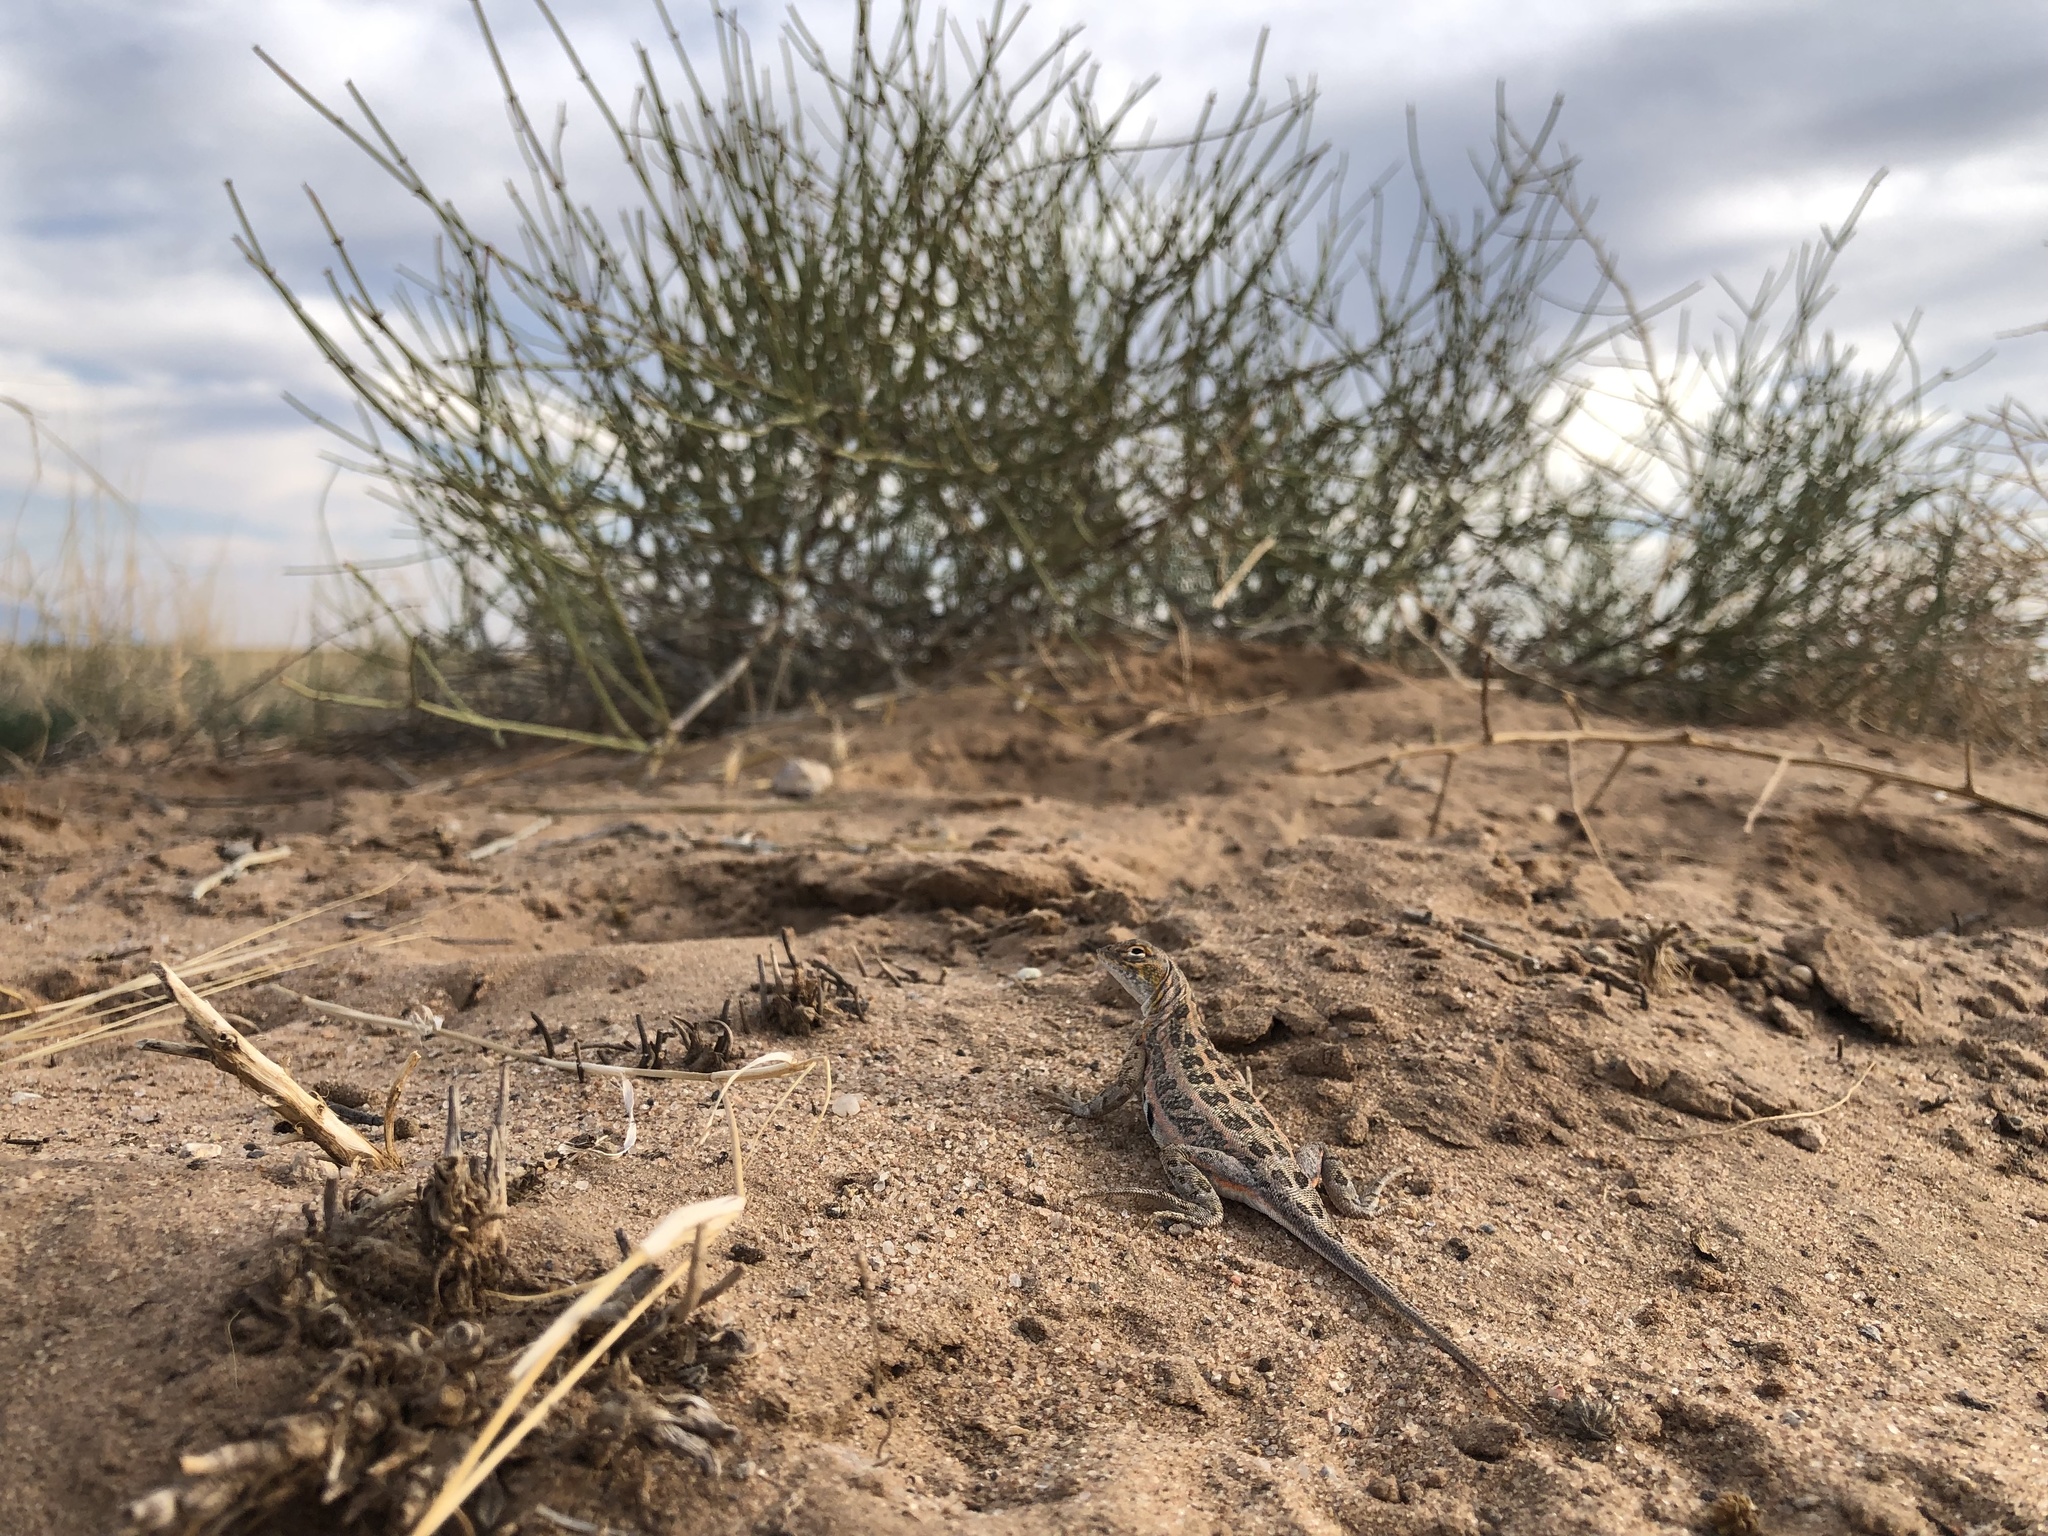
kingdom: Animalia
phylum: Chordata
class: Squamata
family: Phrynosomatidae
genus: Holbrookia
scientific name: Holbrookia maculata
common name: Lesser earless lizard
